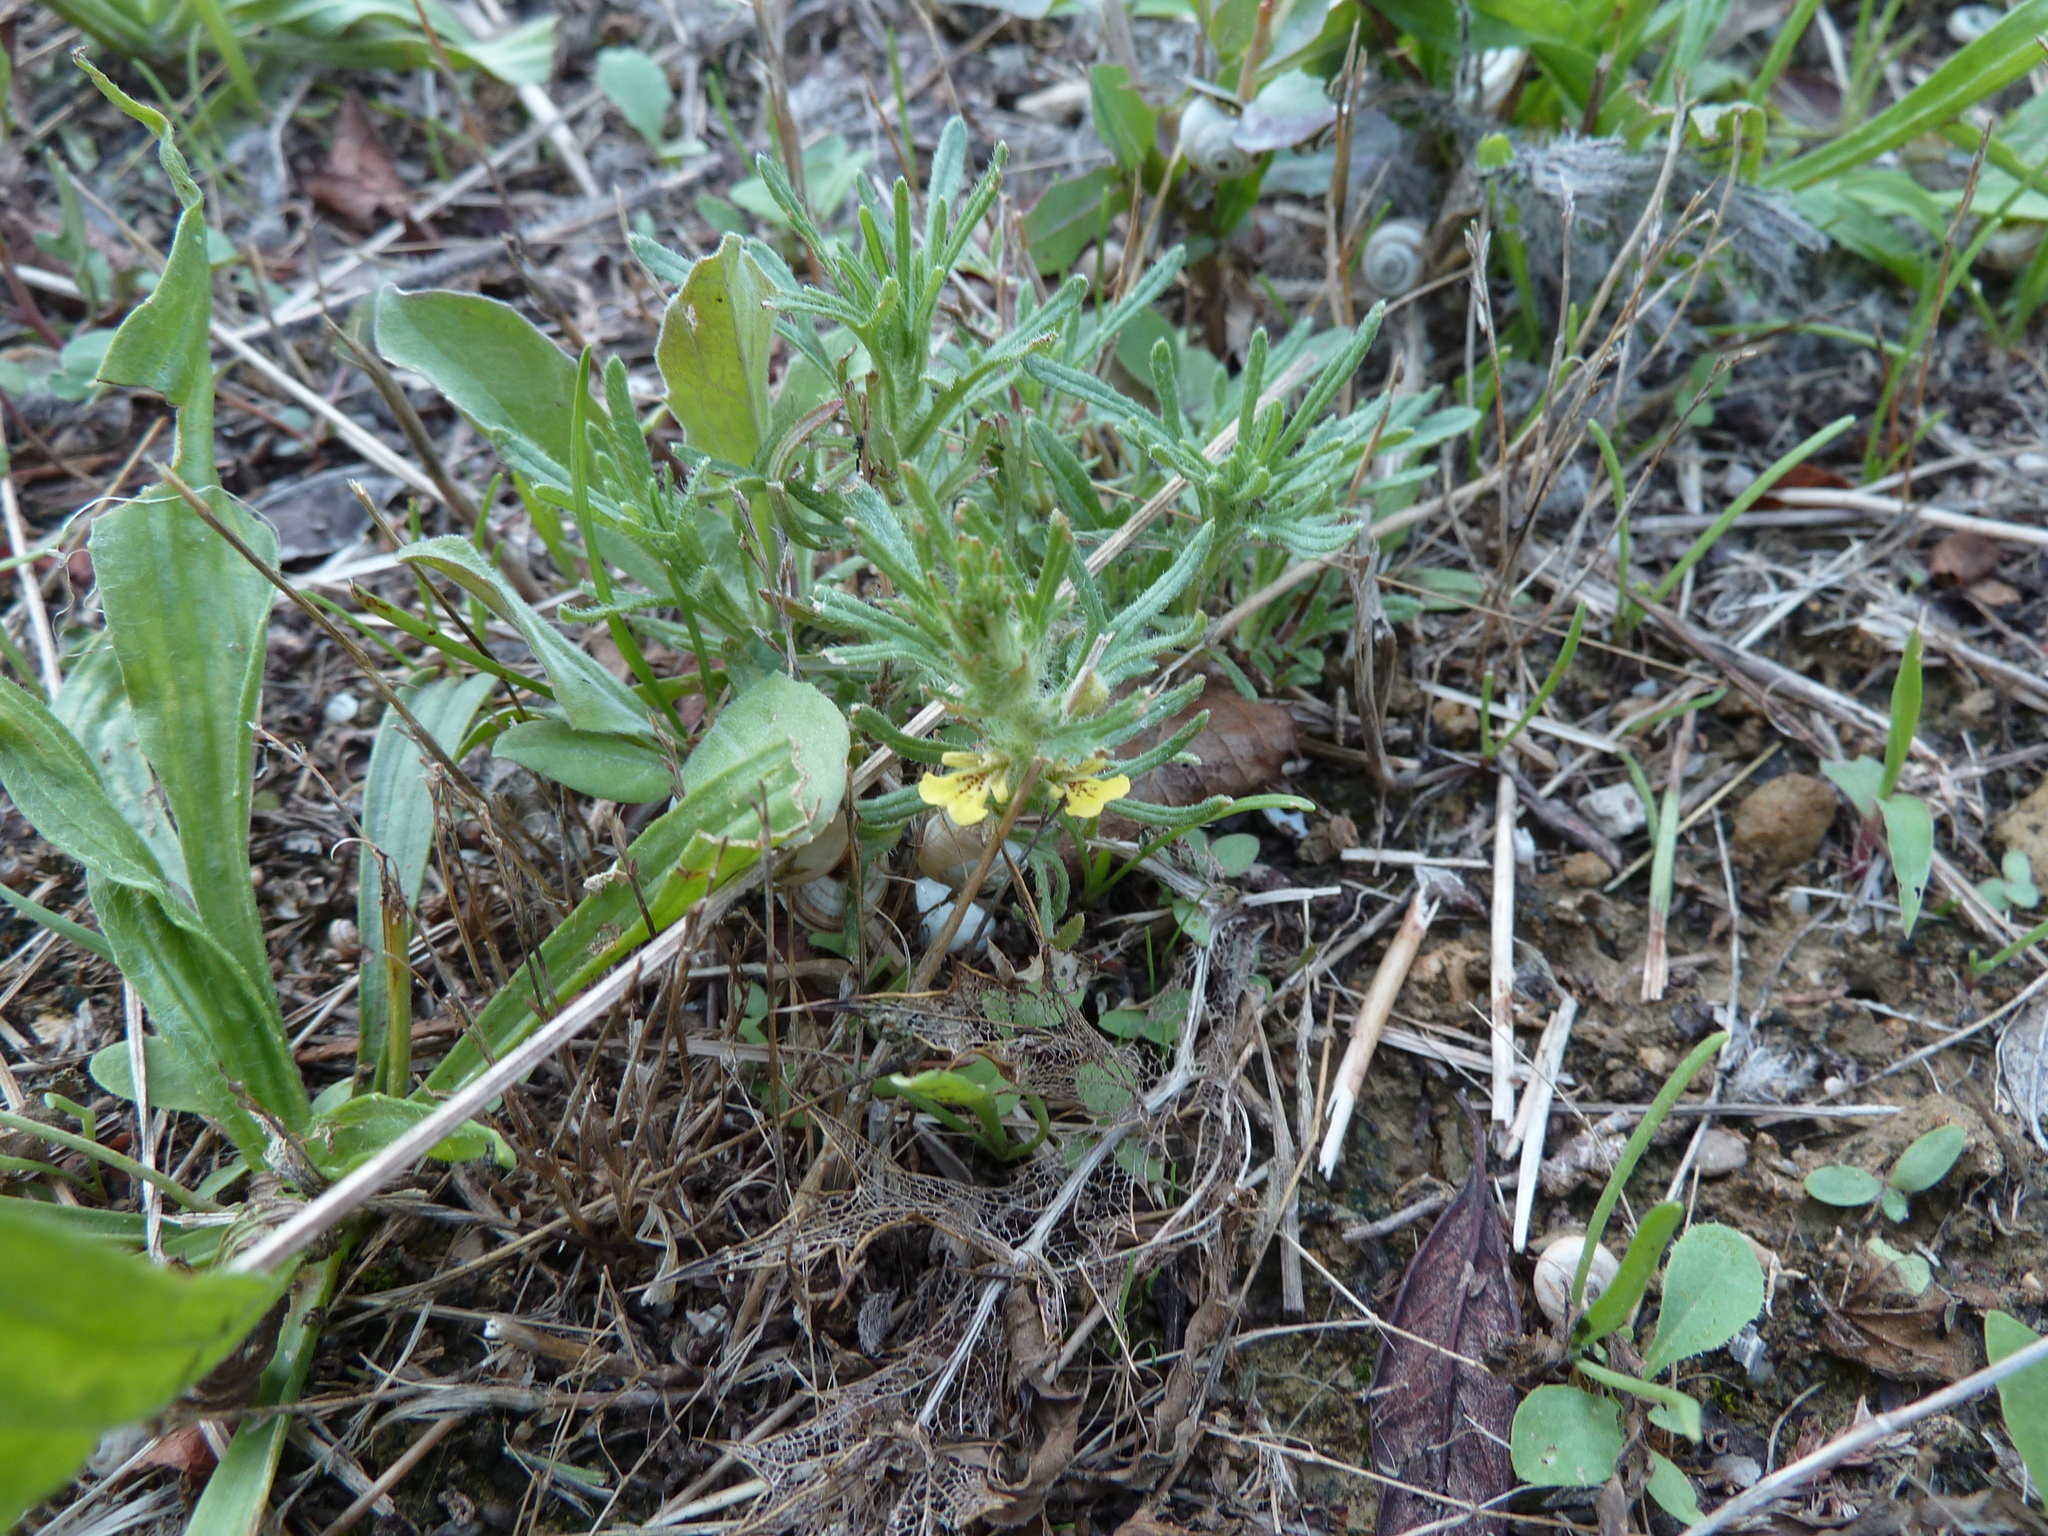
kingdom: Plantae
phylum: Tracheophyta
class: Magnoliopsida
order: Lamiales
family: Lamiaceae
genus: Ajuga
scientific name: Ajuga chamaepitys
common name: Ground-pine
